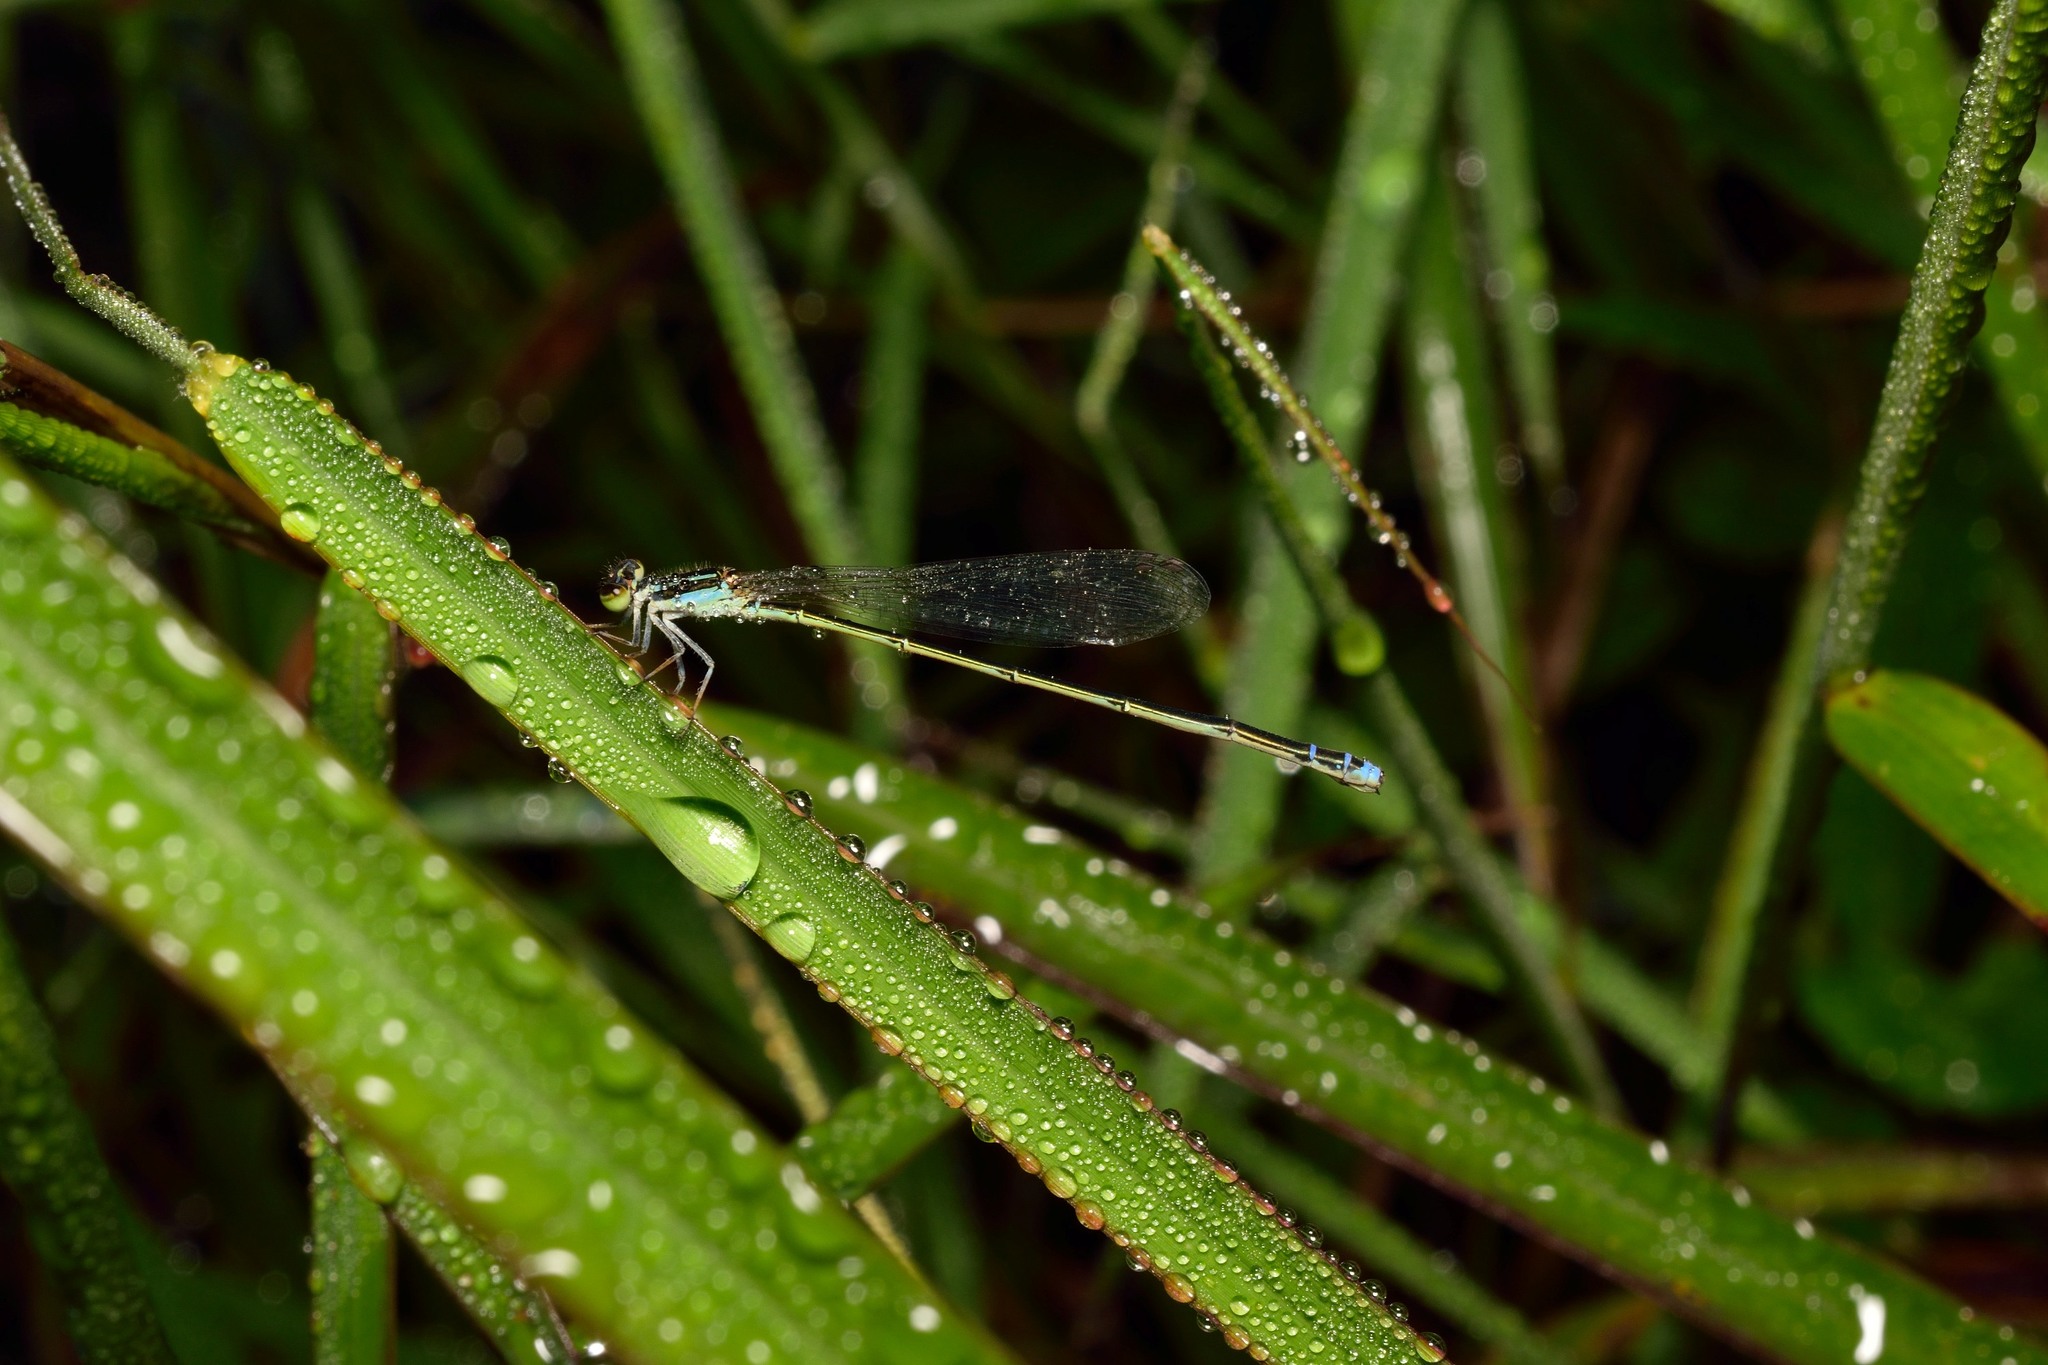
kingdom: Animalia
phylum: Arthropoda
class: Insecta
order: Odonata
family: Coenagrionidae
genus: Aciagrion
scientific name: Aciagrion approximans
